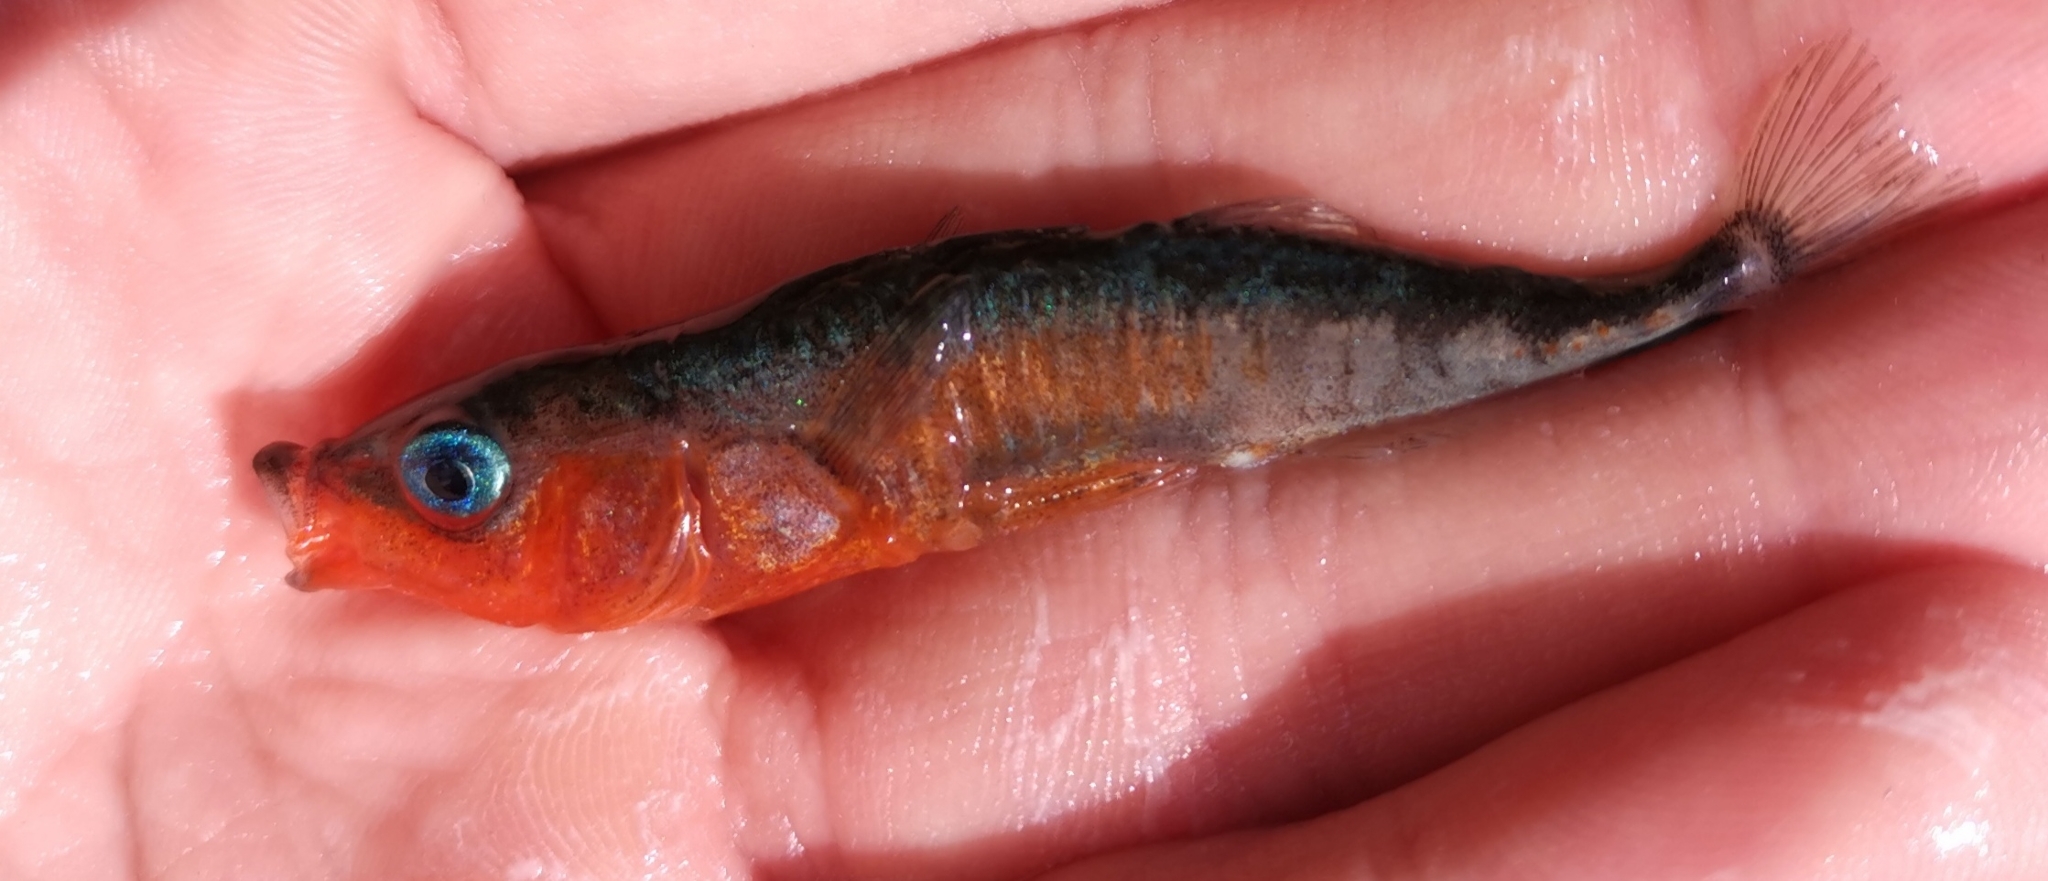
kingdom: Animalia
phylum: Chordata
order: Gasterosteiformes
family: Gasterosteidae
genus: Gasterosteus
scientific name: Gasterosteus aculeatus
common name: Three-spined stickleback
